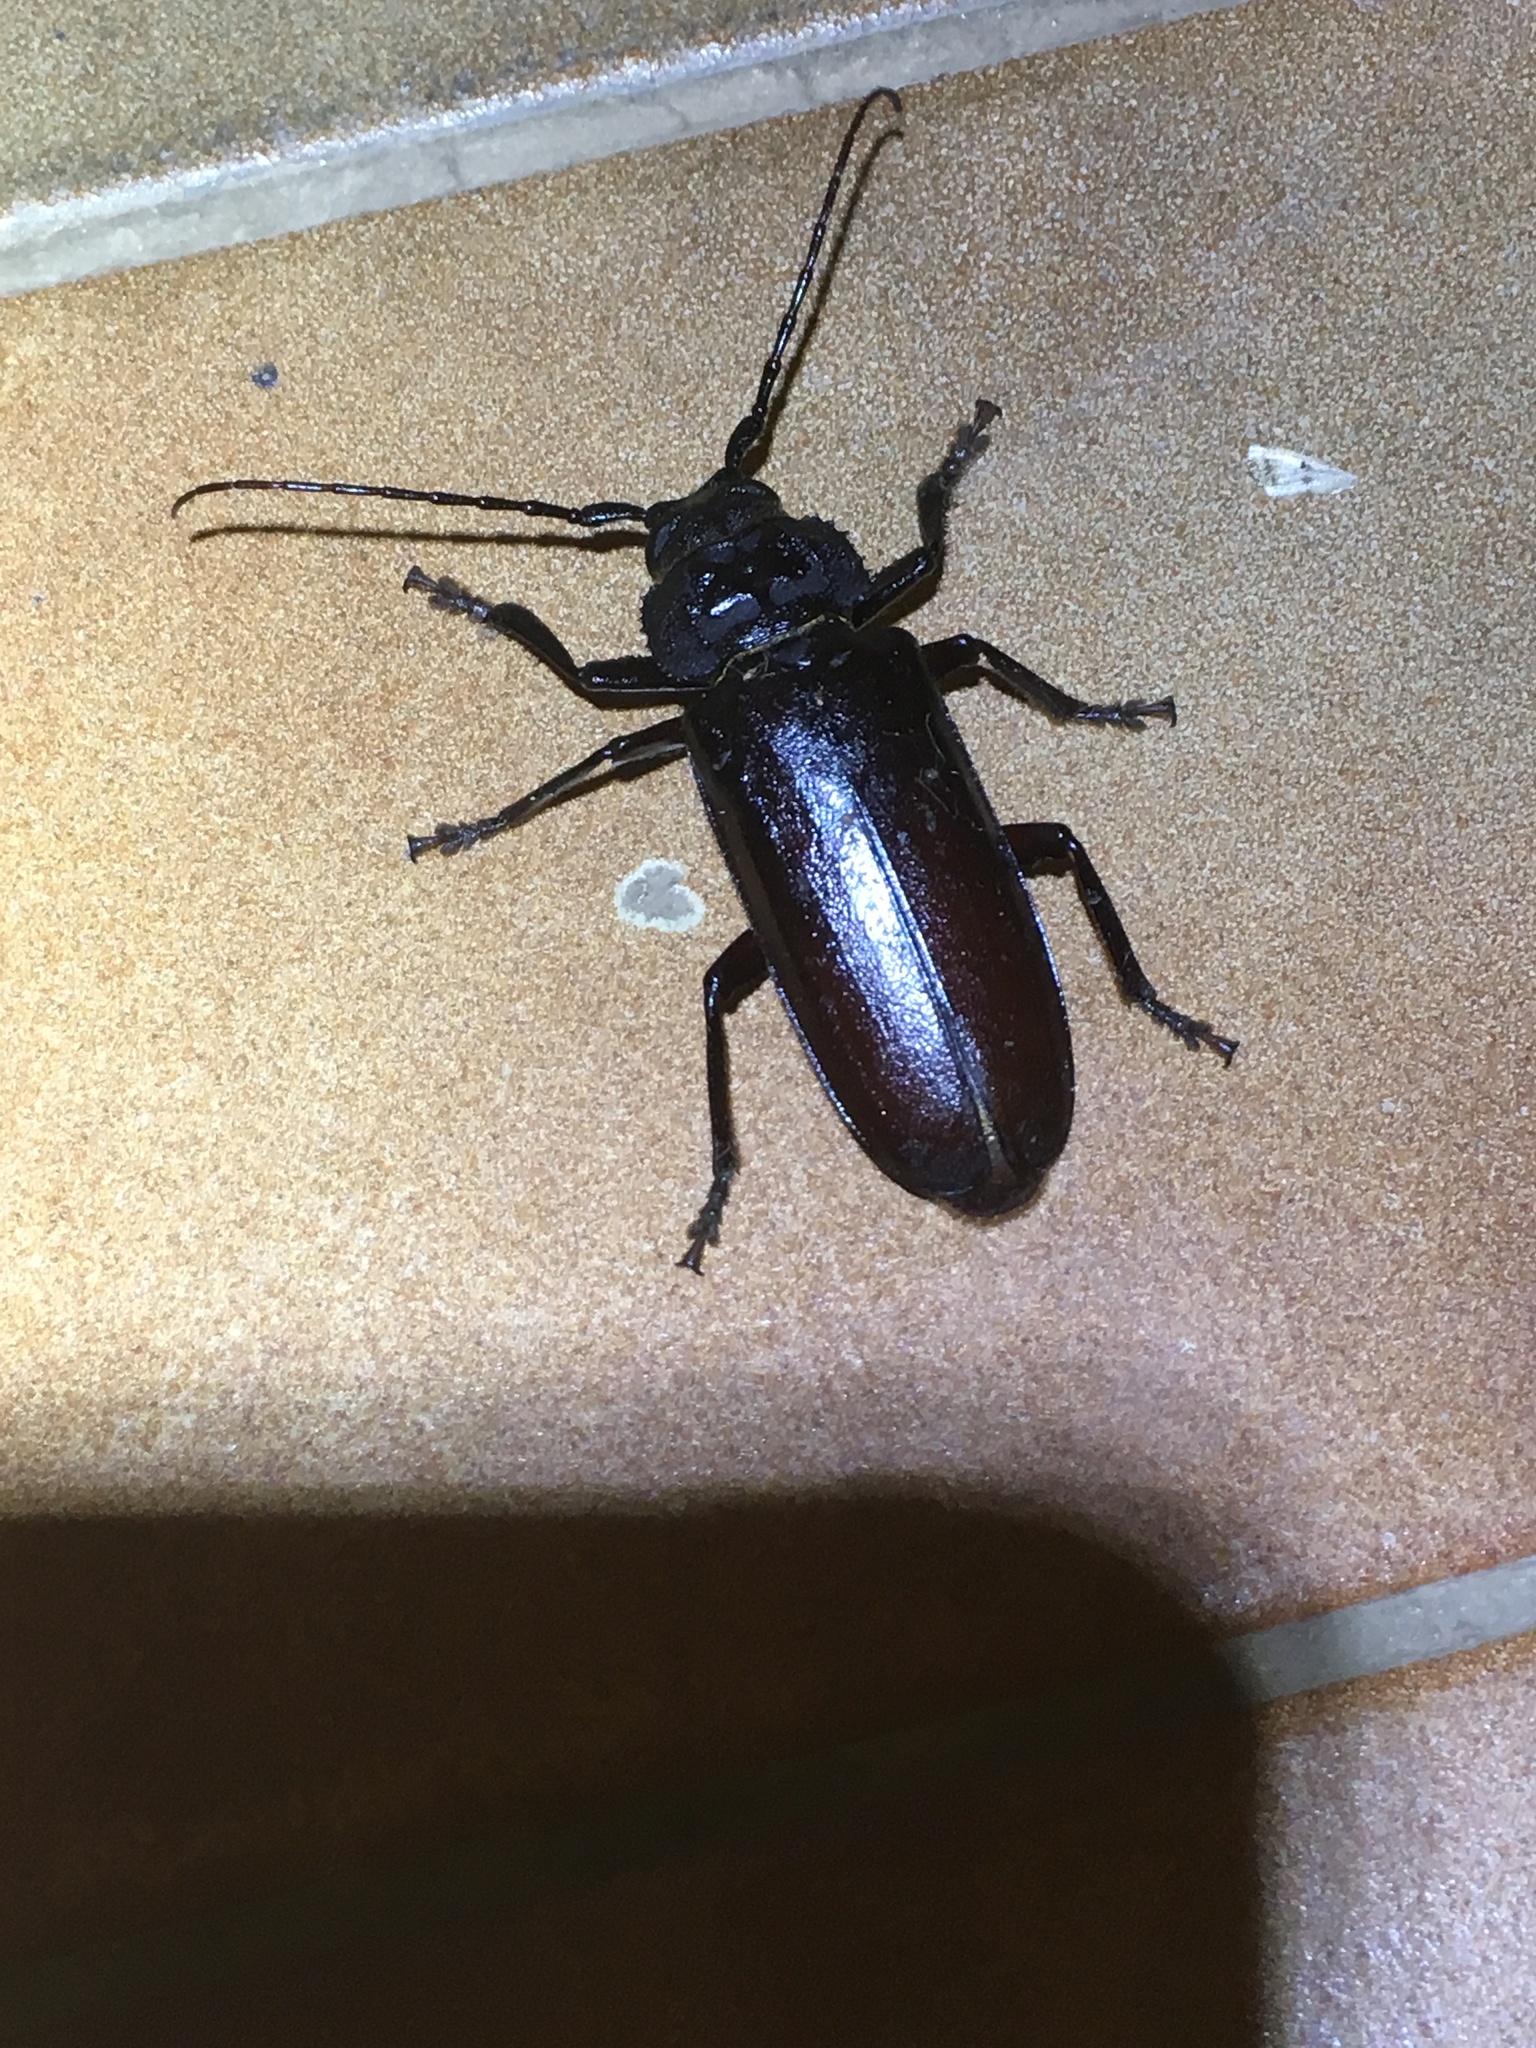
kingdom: Animalia
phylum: Arthropoda
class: Insecta
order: Coleoptera
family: Cerambycidae
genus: Eurynassa
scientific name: Eurynassa australis
